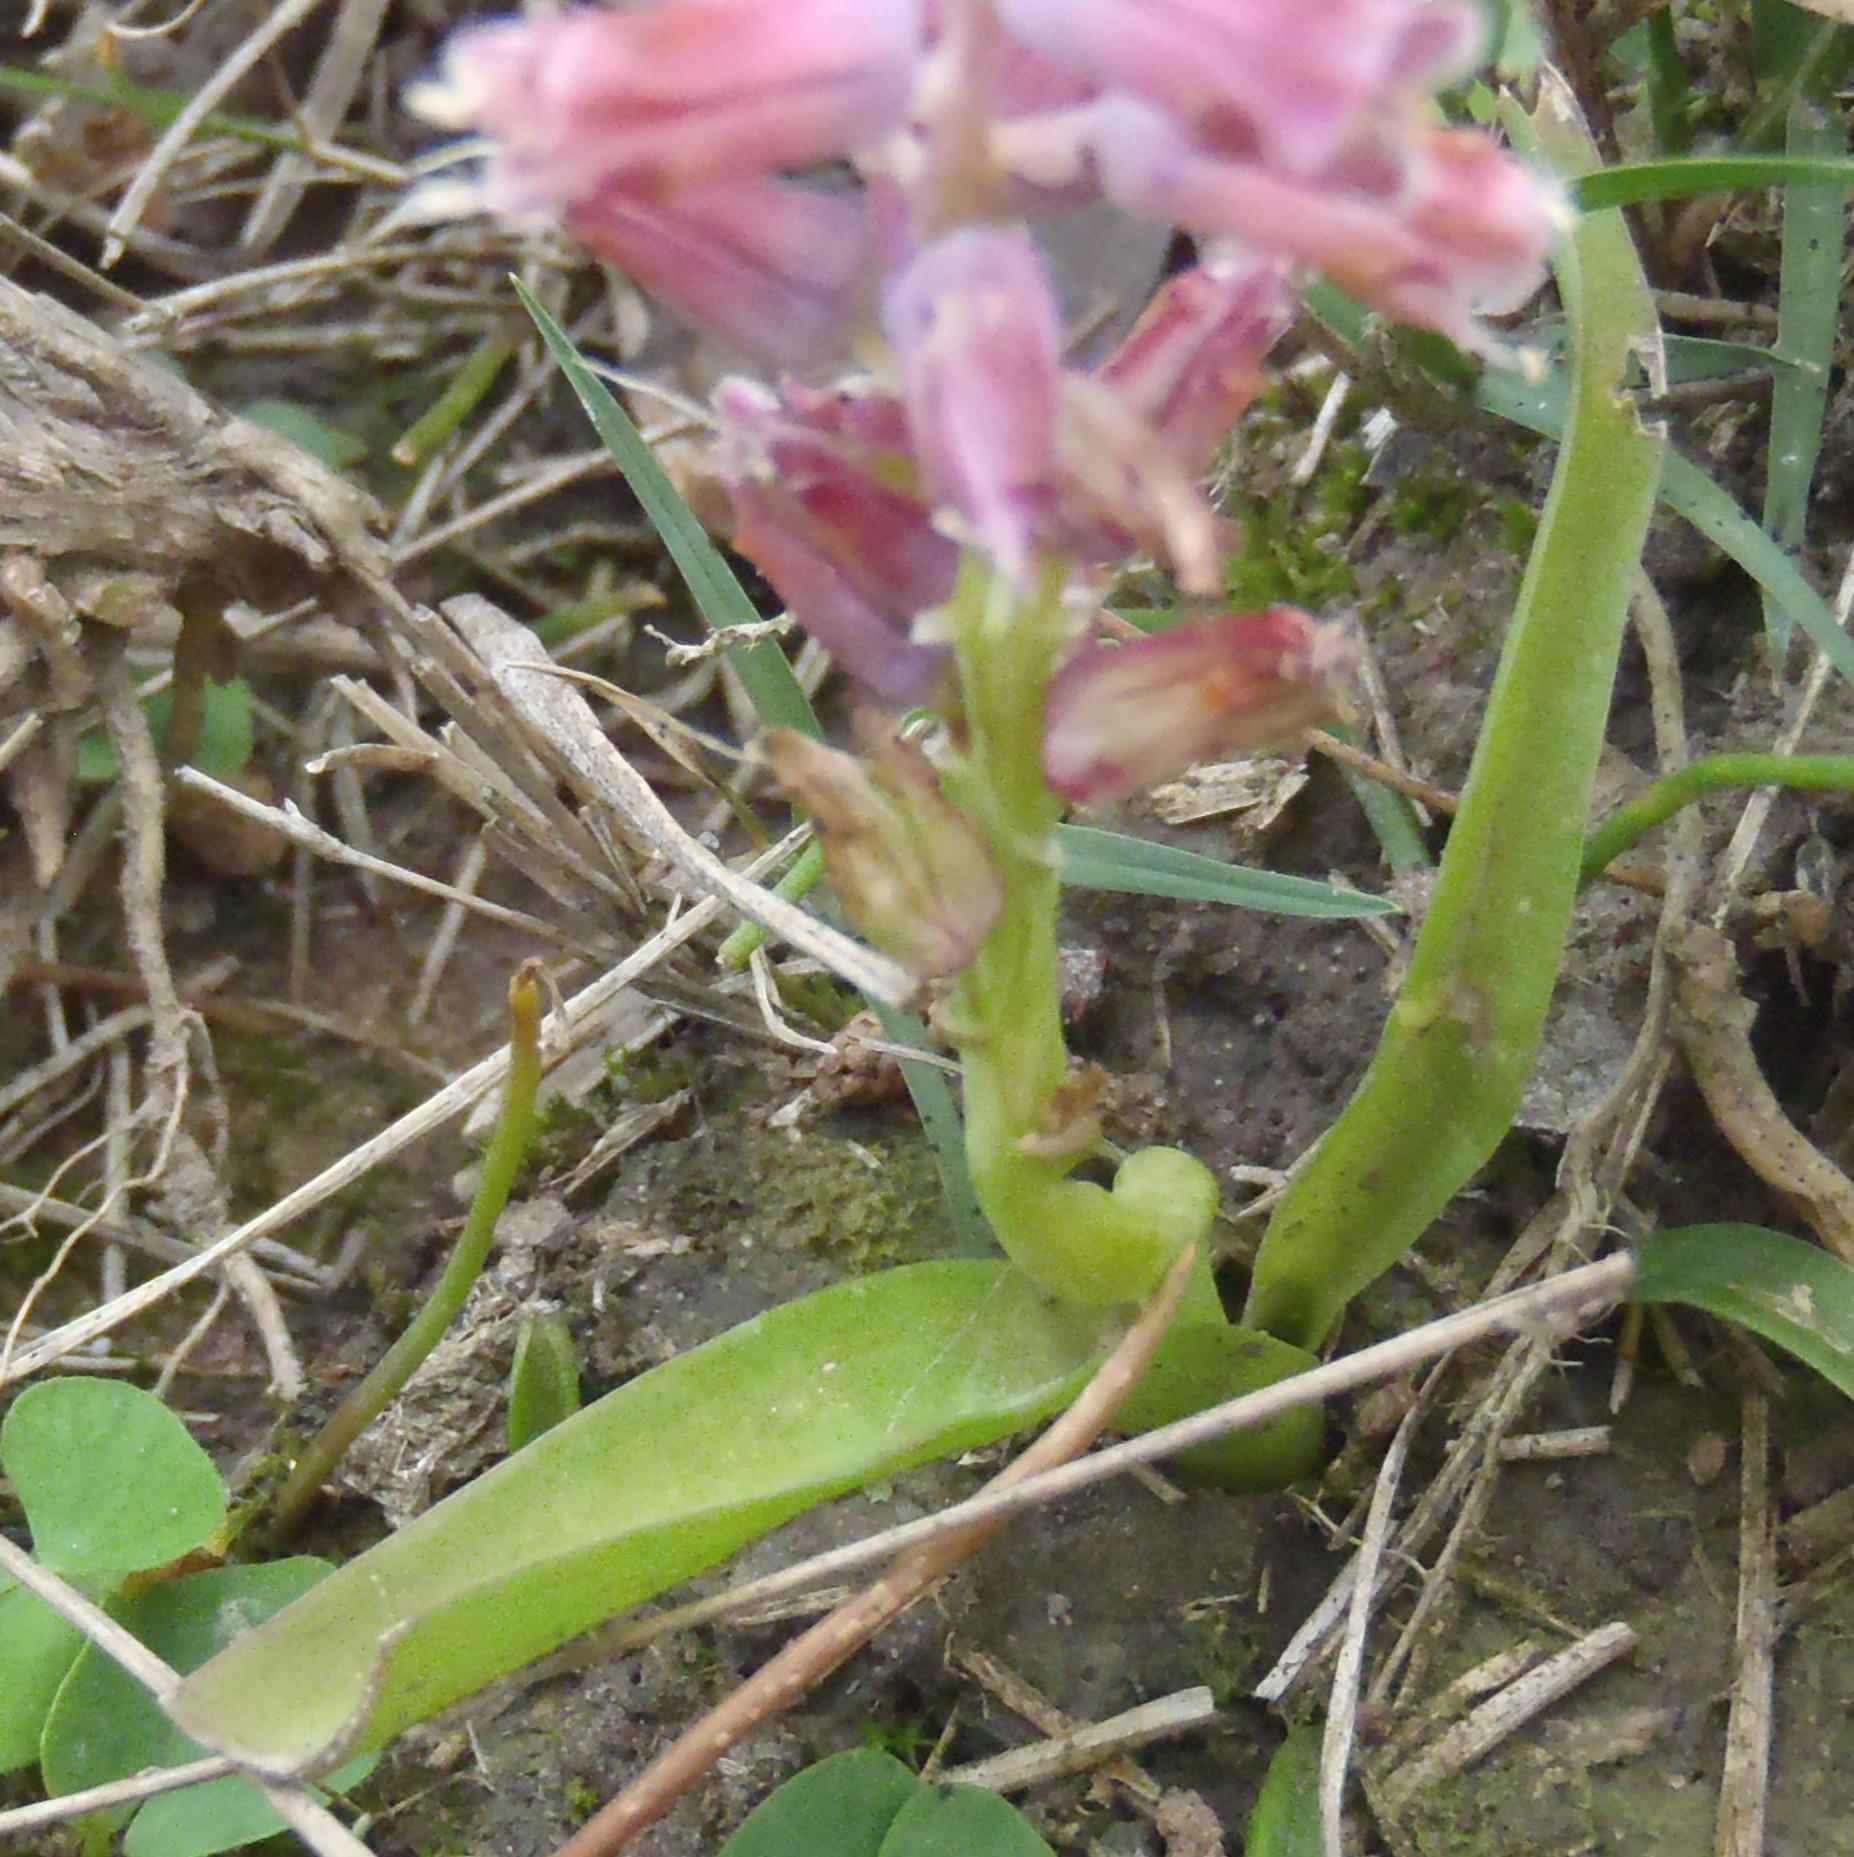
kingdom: Plantae
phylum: Tracheophyta
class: Liliopsida
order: Asparagales
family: Asparagaceae
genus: Lachenalia
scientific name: Lachenalia youngii
